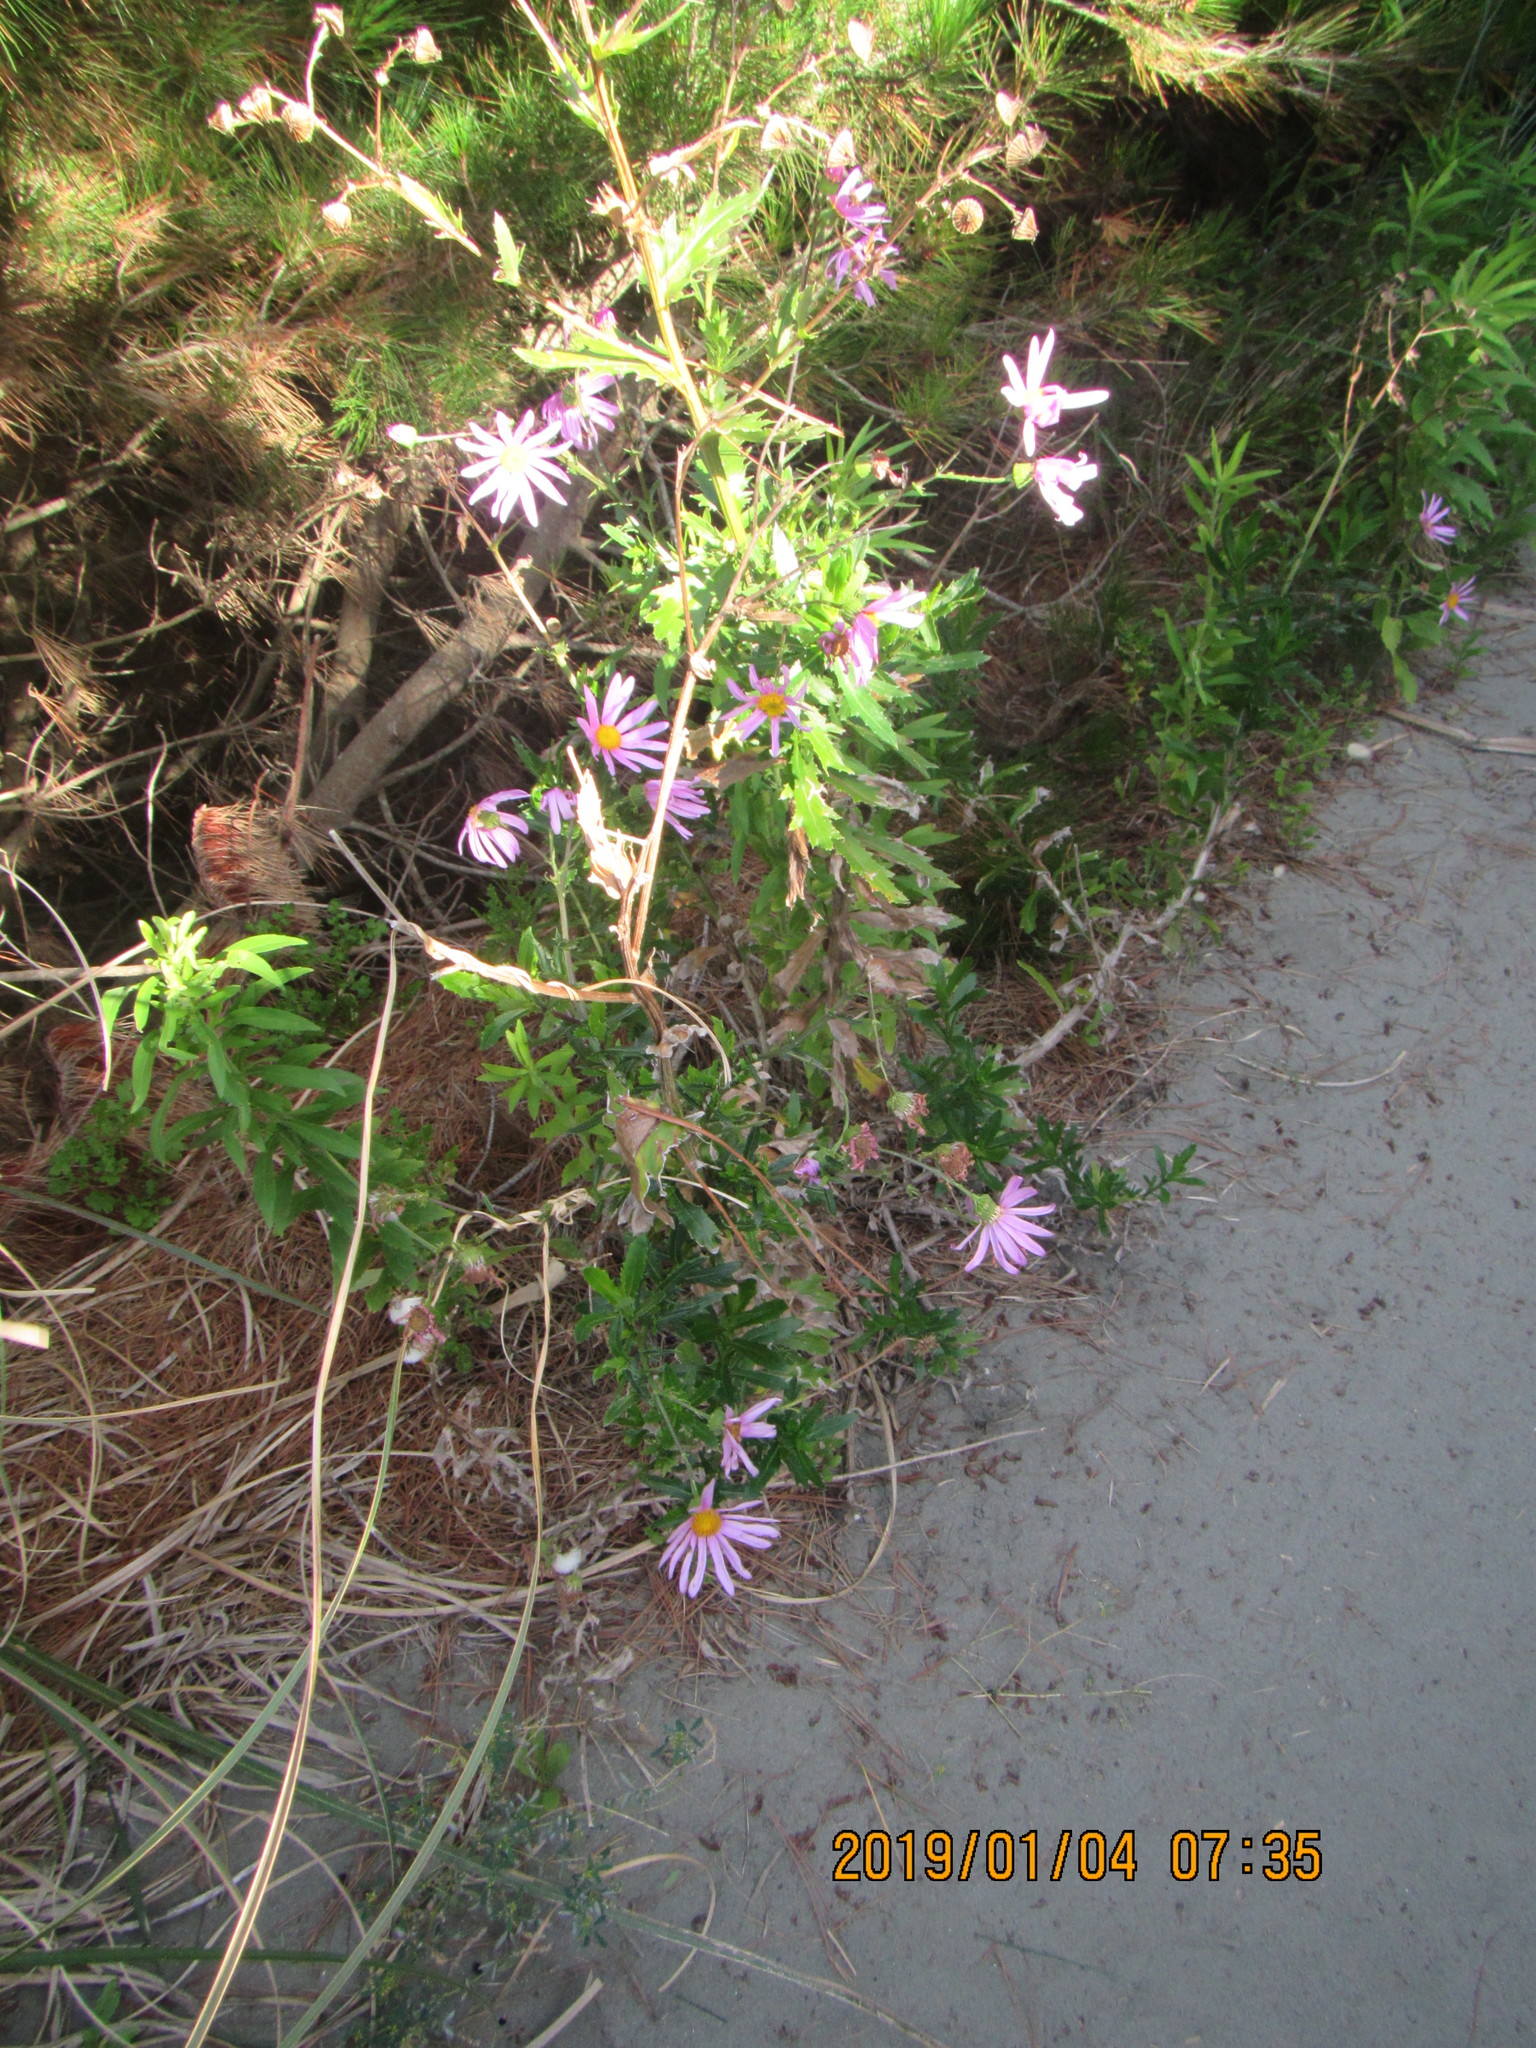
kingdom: Plantae
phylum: Tracheophyta
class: Magnoliopsida
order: Asterales
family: Asteraceae
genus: Senecio
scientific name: Senecio glastifolius
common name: Woad-leaved ragwort
